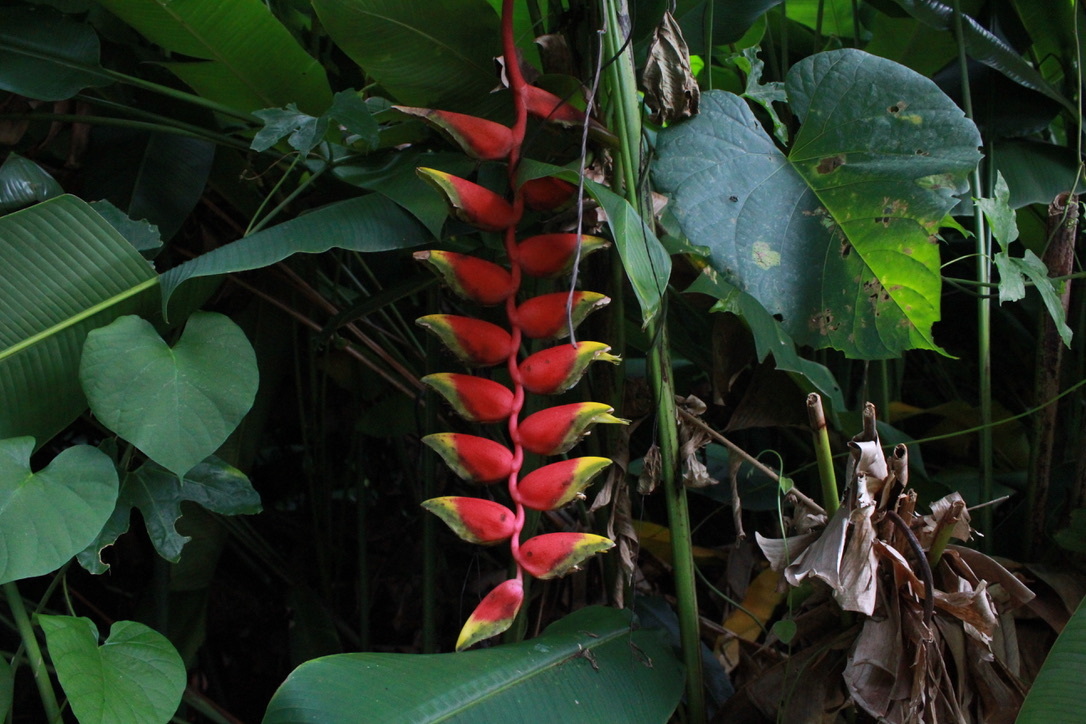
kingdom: Plantae
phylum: Tracheophyta
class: Liliopsida
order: Zingiberales
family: Heliconiaceae
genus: Heliconia
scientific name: Heliconia rostrata
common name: False bird of paradise
